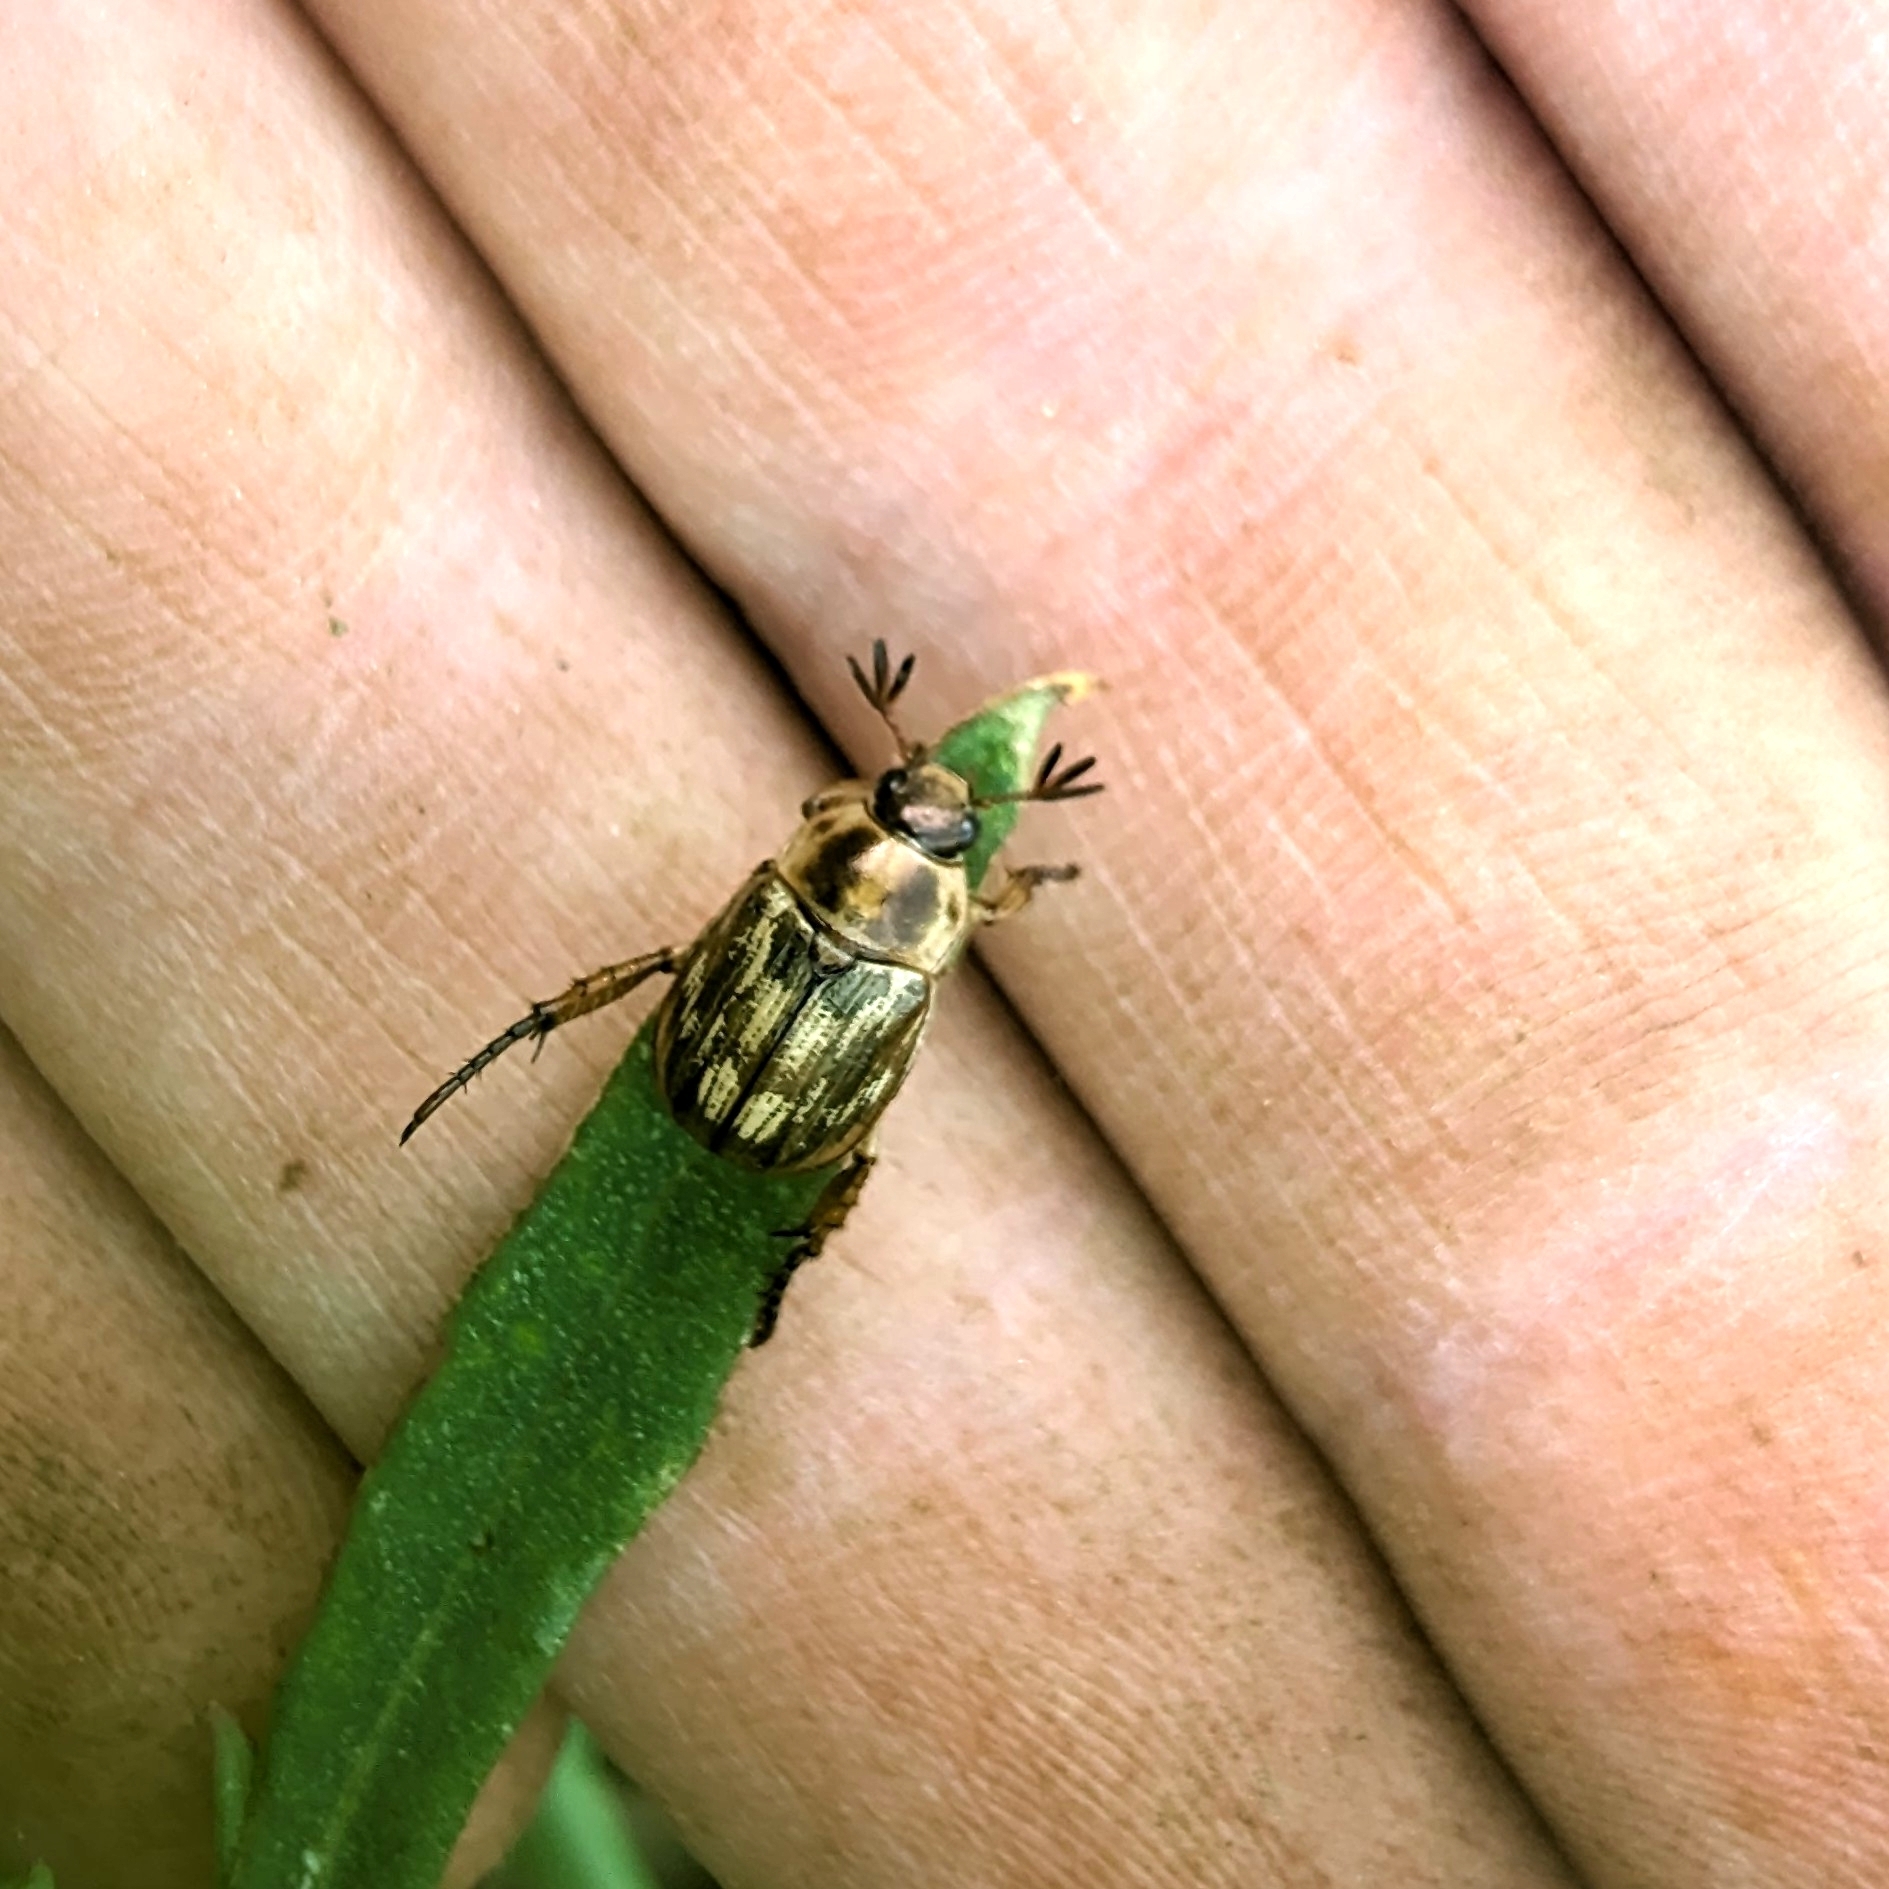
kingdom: Animalia
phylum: Arthropoda
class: Insecta
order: Coleoptera
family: Scarabaeidae
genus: Exomala
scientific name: Exomala orientalis
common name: Oriental beetle
